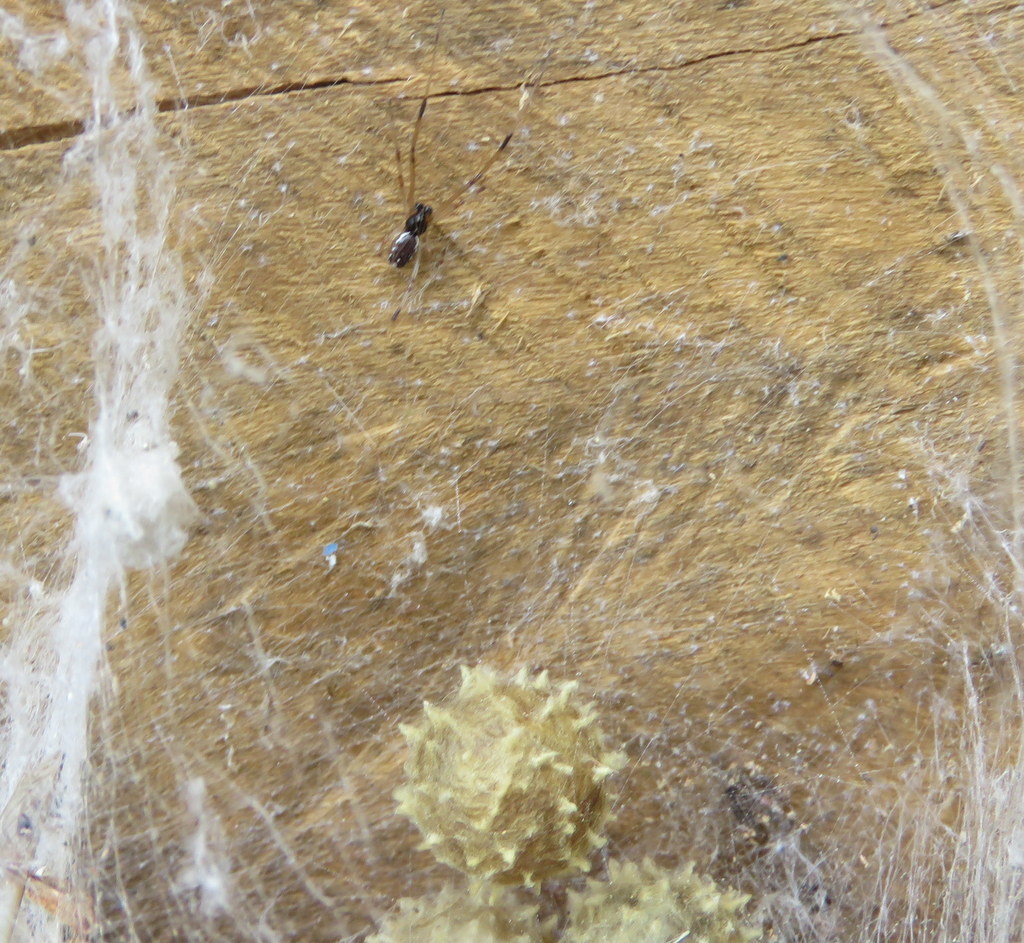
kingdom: Animalia
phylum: Arthropoda
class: Arachnida
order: Araneae
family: Theridiidae
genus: Latrodectus
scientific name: Latrodectus geometricus
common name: Brown widow spider
